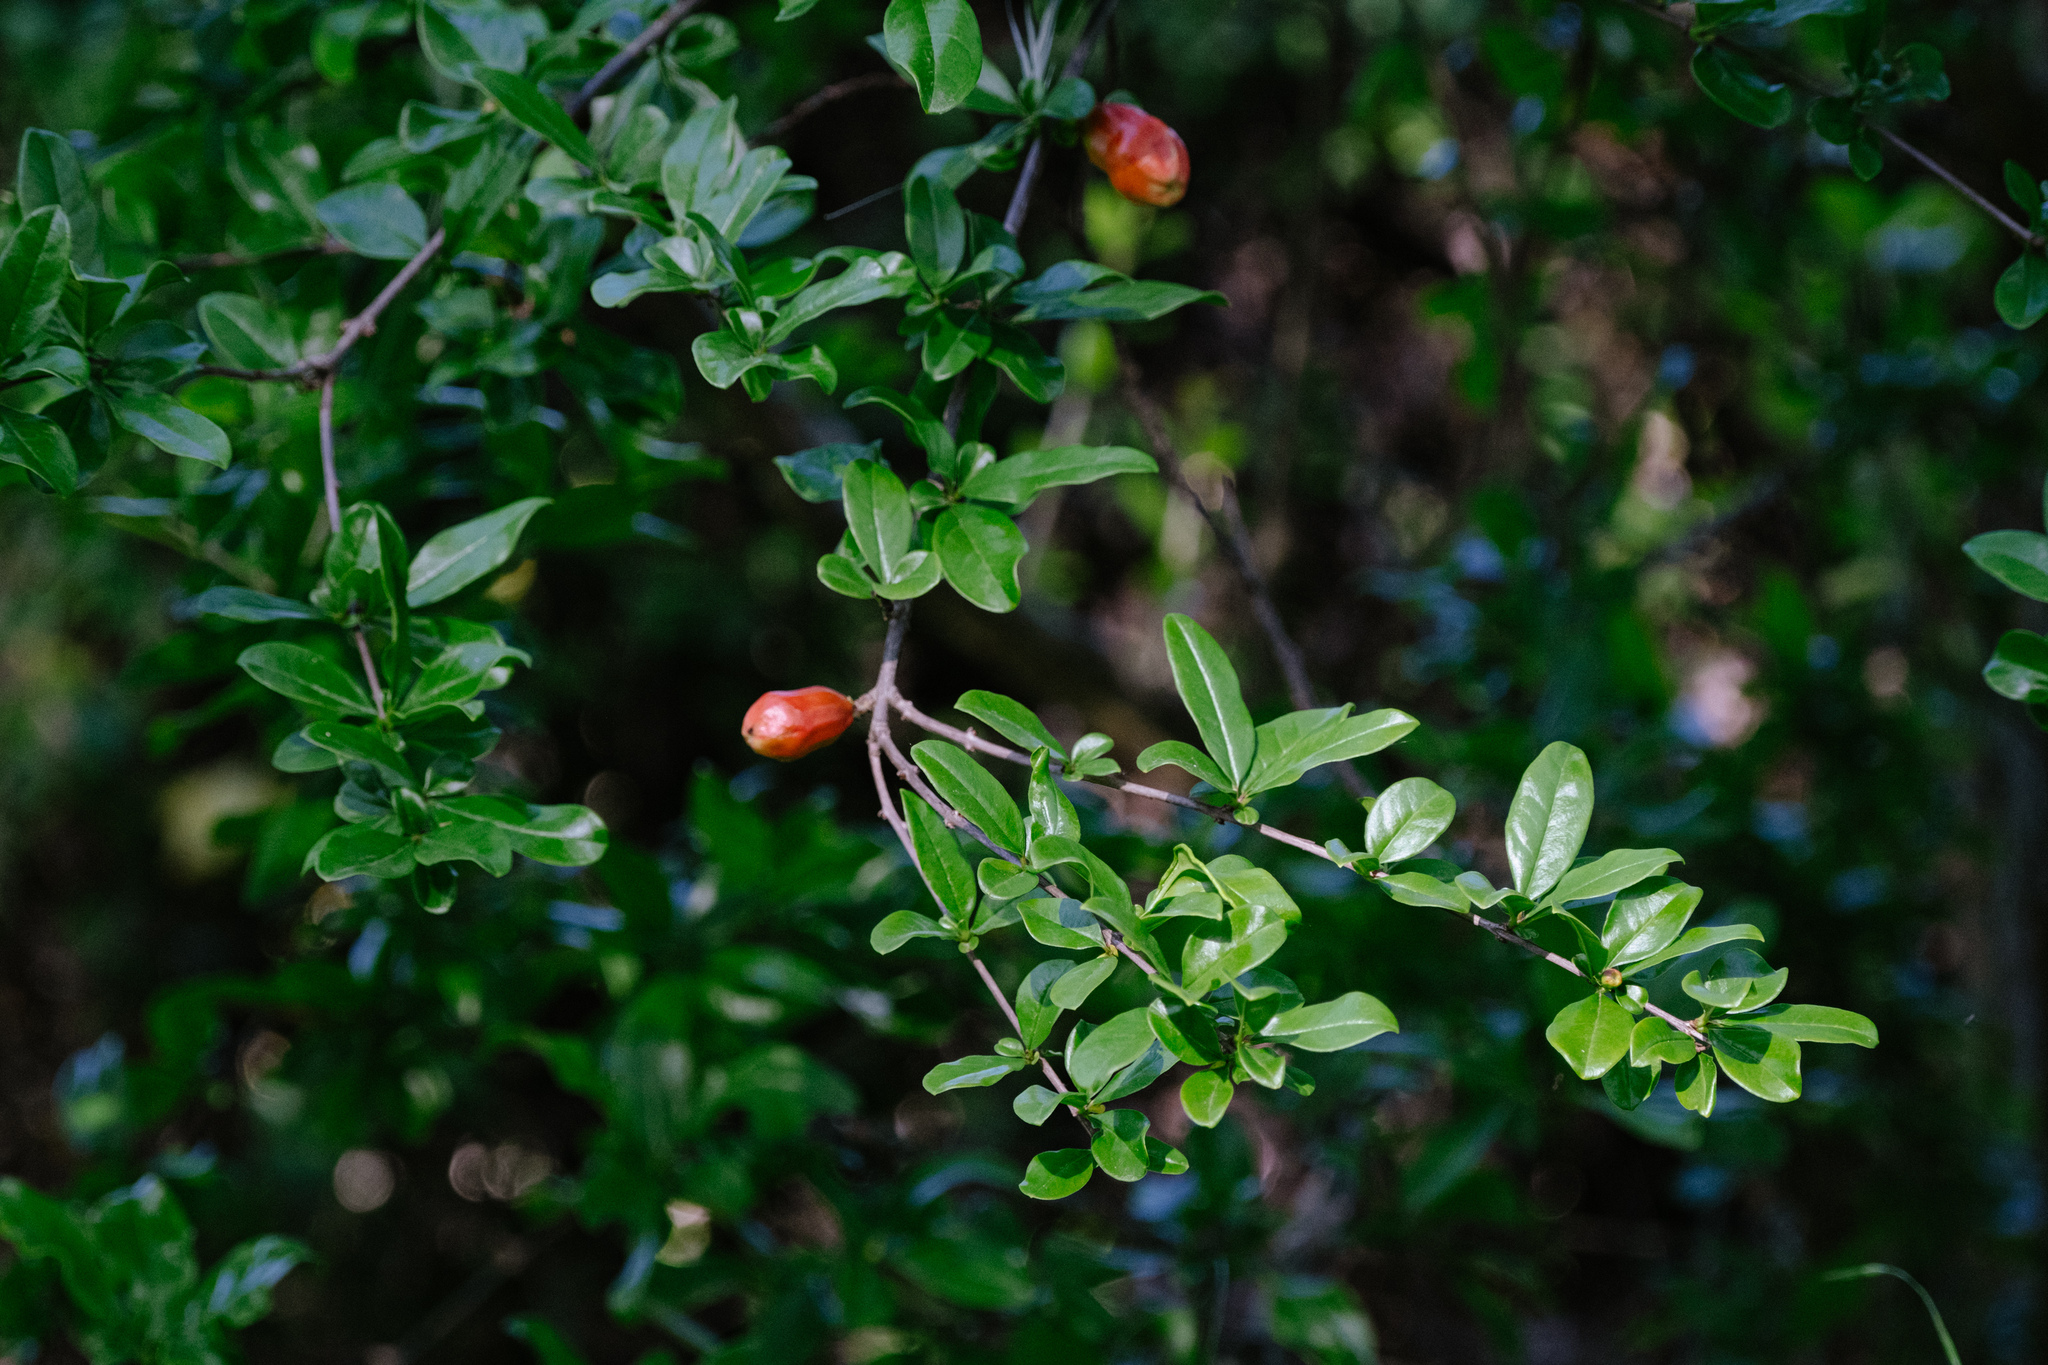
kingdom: Plantae
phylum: Tracheophyta
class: Magnoliopsida
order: Myrtales
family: Lythraceae
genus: Punica
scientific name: Punica granatum
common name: Pomegranate
